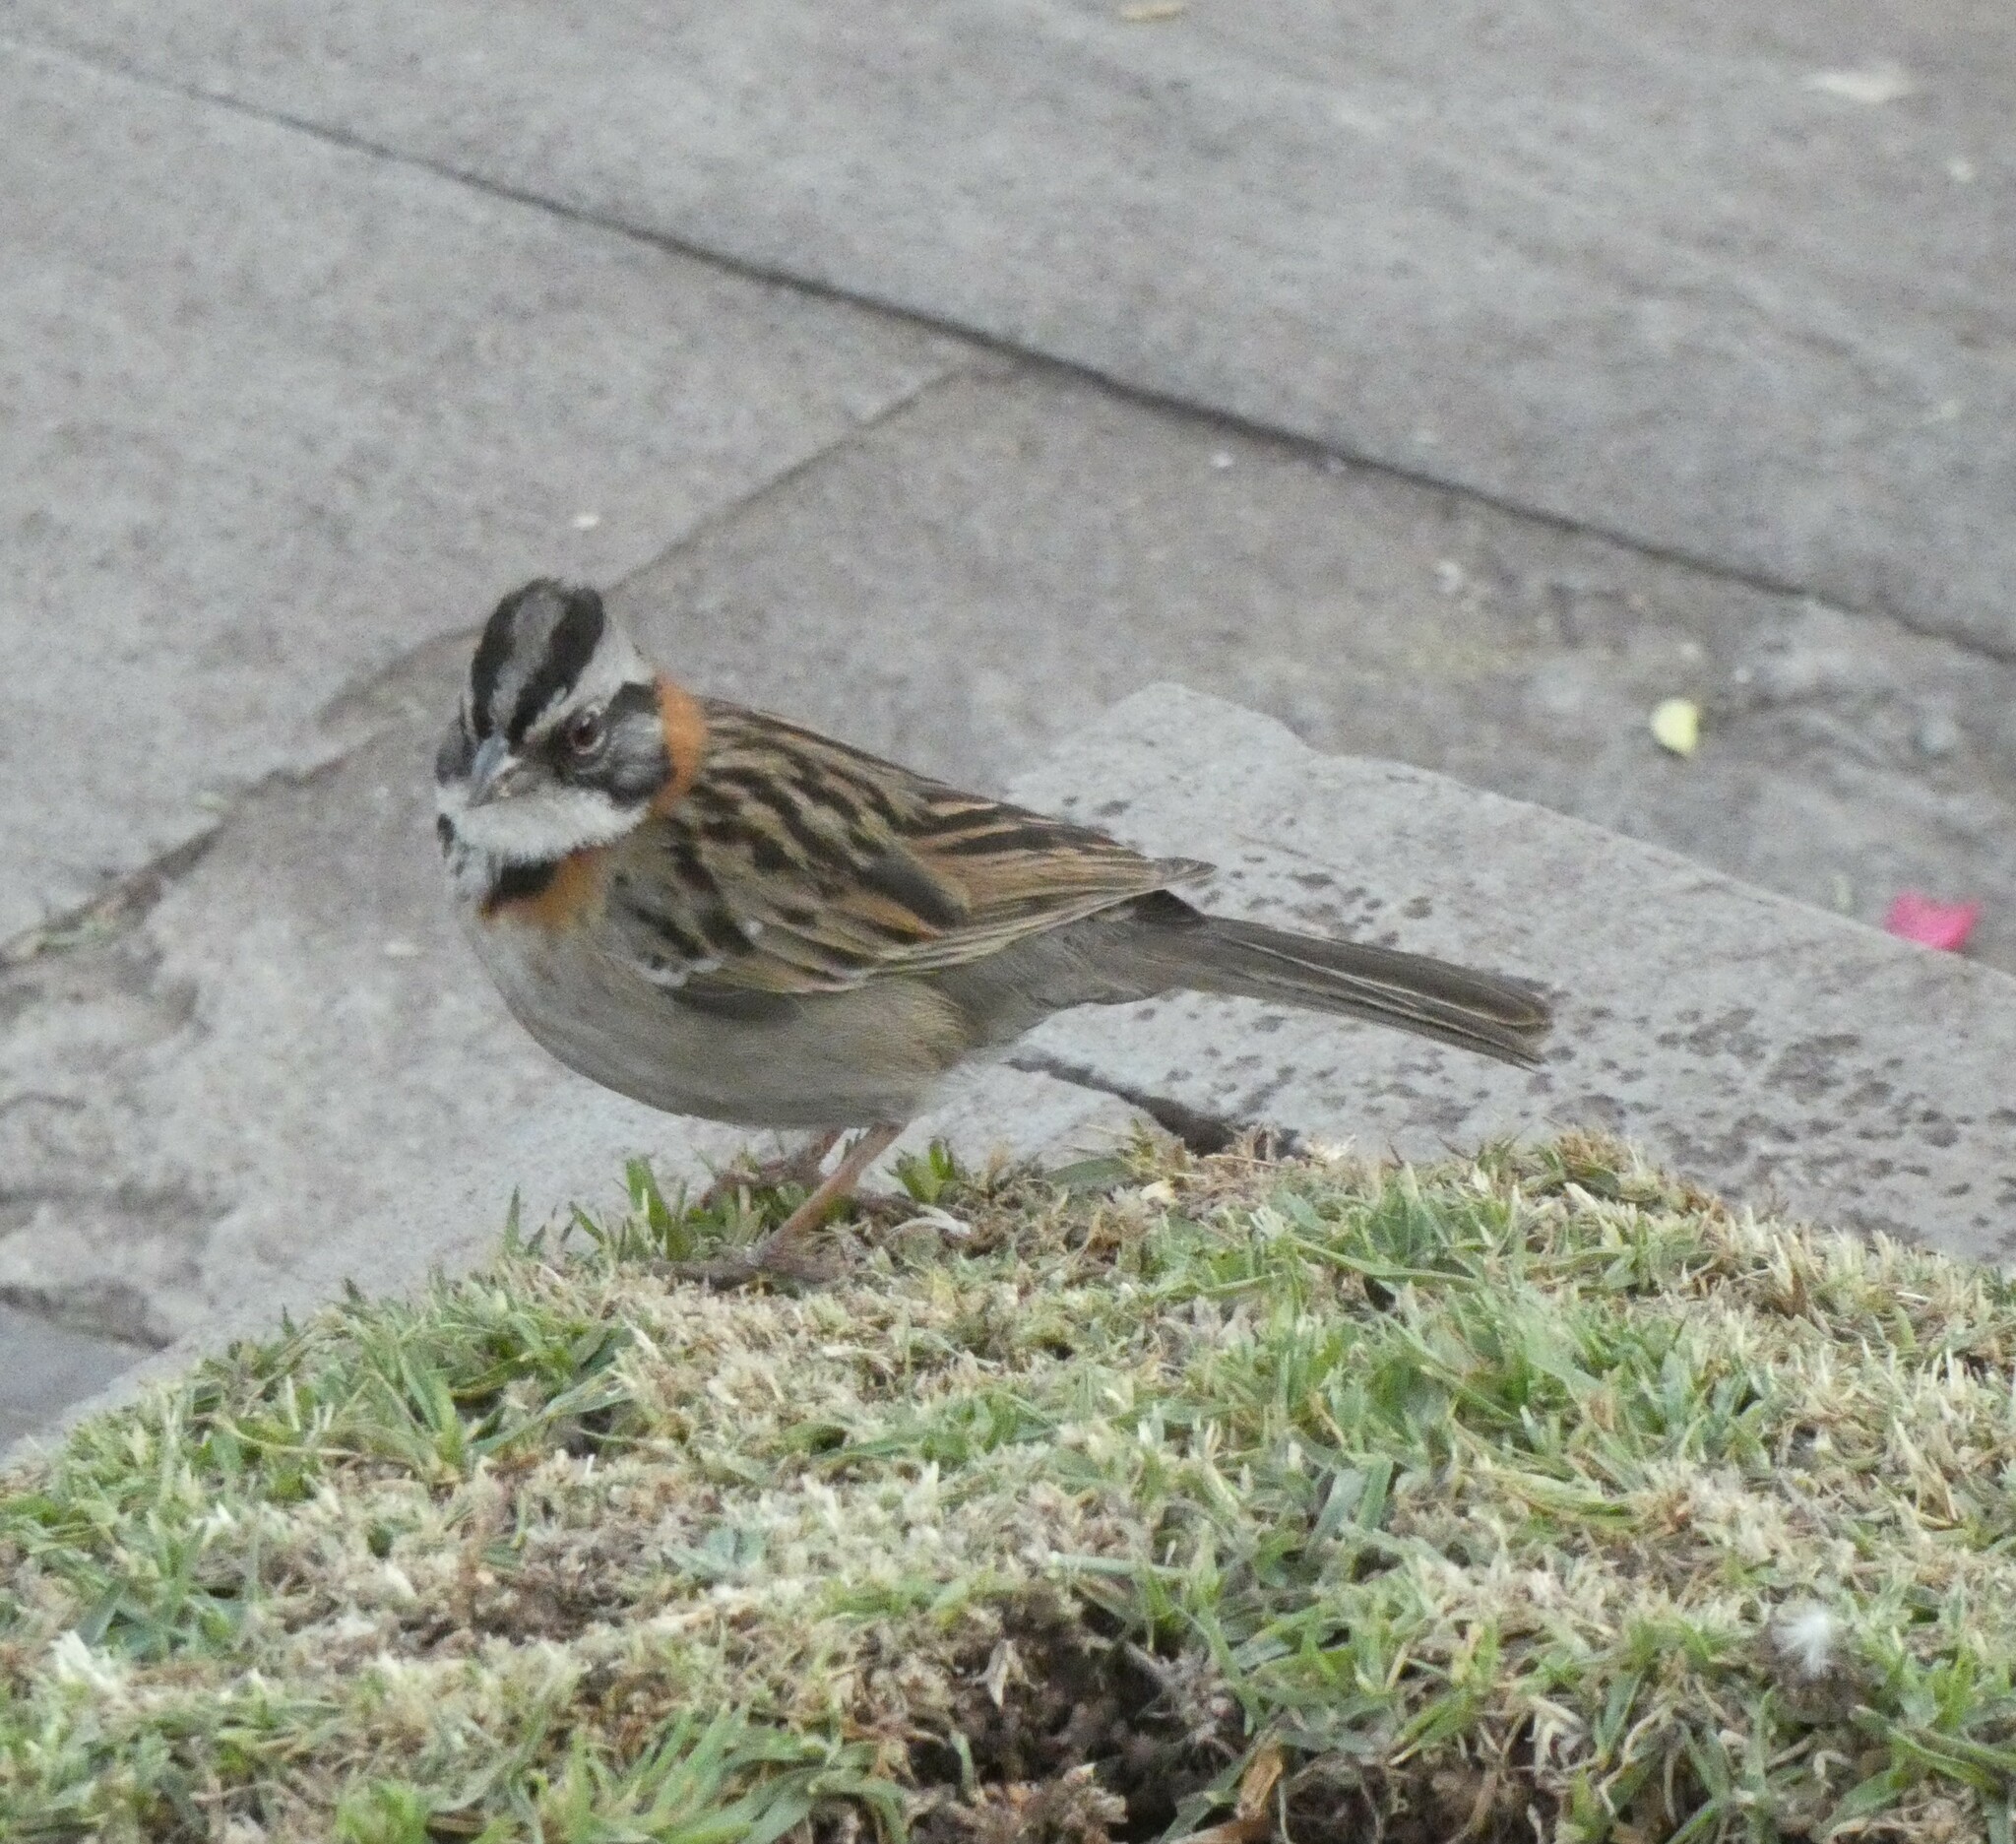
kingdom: Animalia
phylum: Chordata
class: Aves
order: Passeriformes
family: Passerellidae
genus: Zonotrichia
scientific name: Zonotrichia capensis
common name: Rufous-collared sparrow
